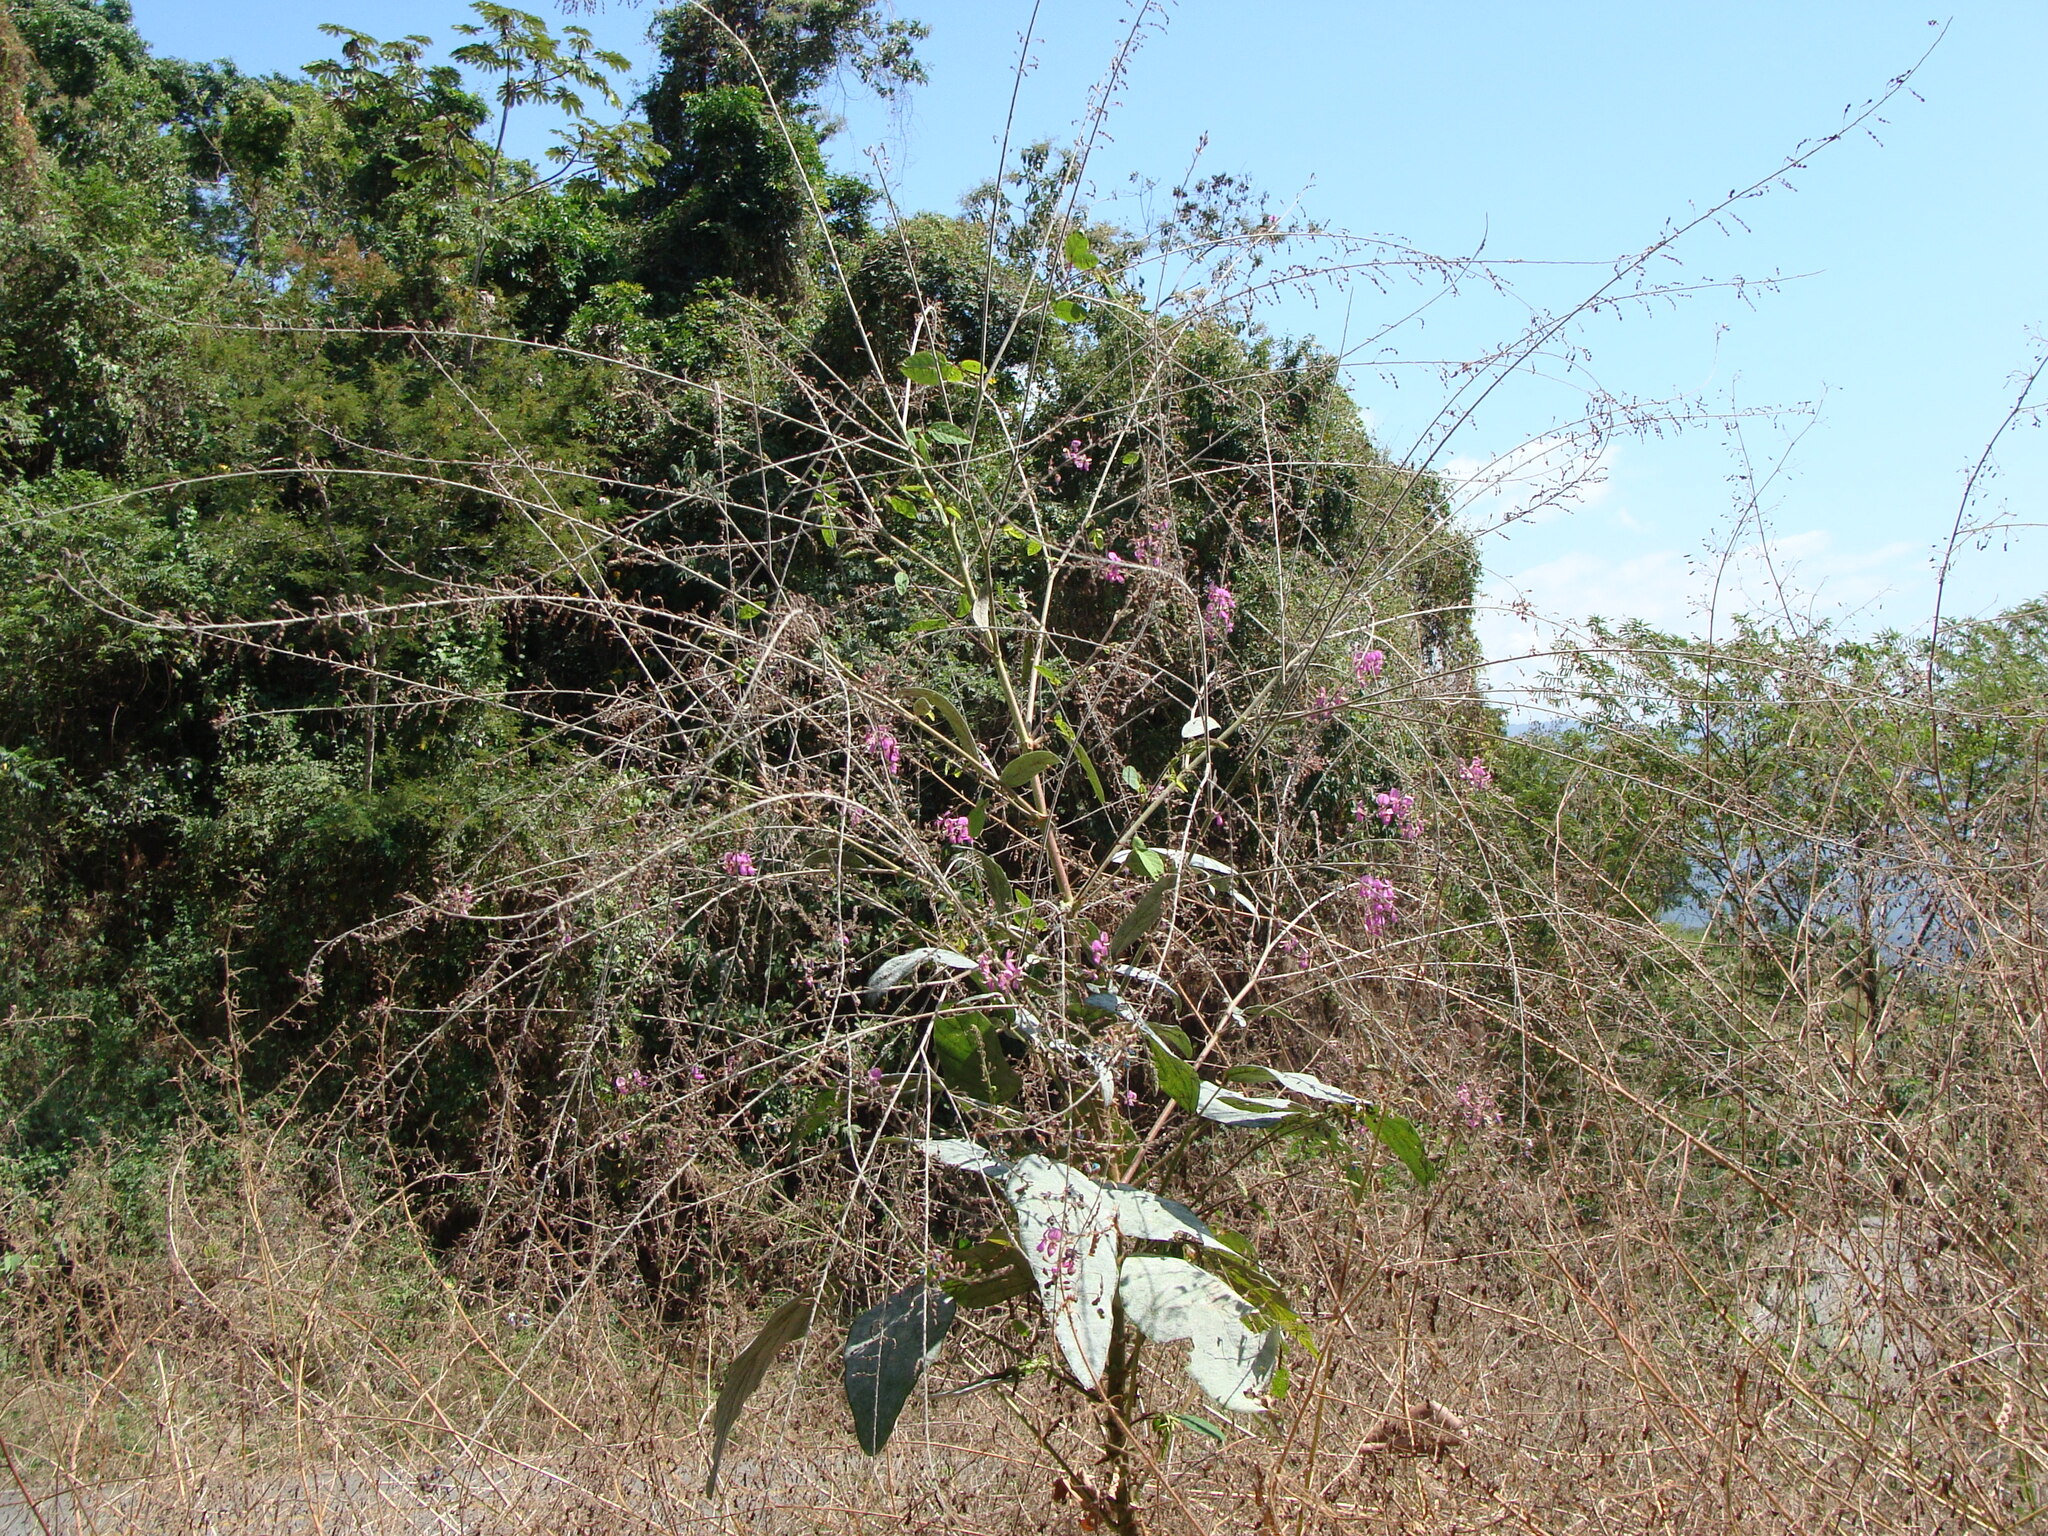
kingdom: Plantae
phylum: Tracheophyta
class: Magnoliopsida
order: Fabales
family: Fabaceae
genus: Desmodium
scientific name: Desmodium distortum
